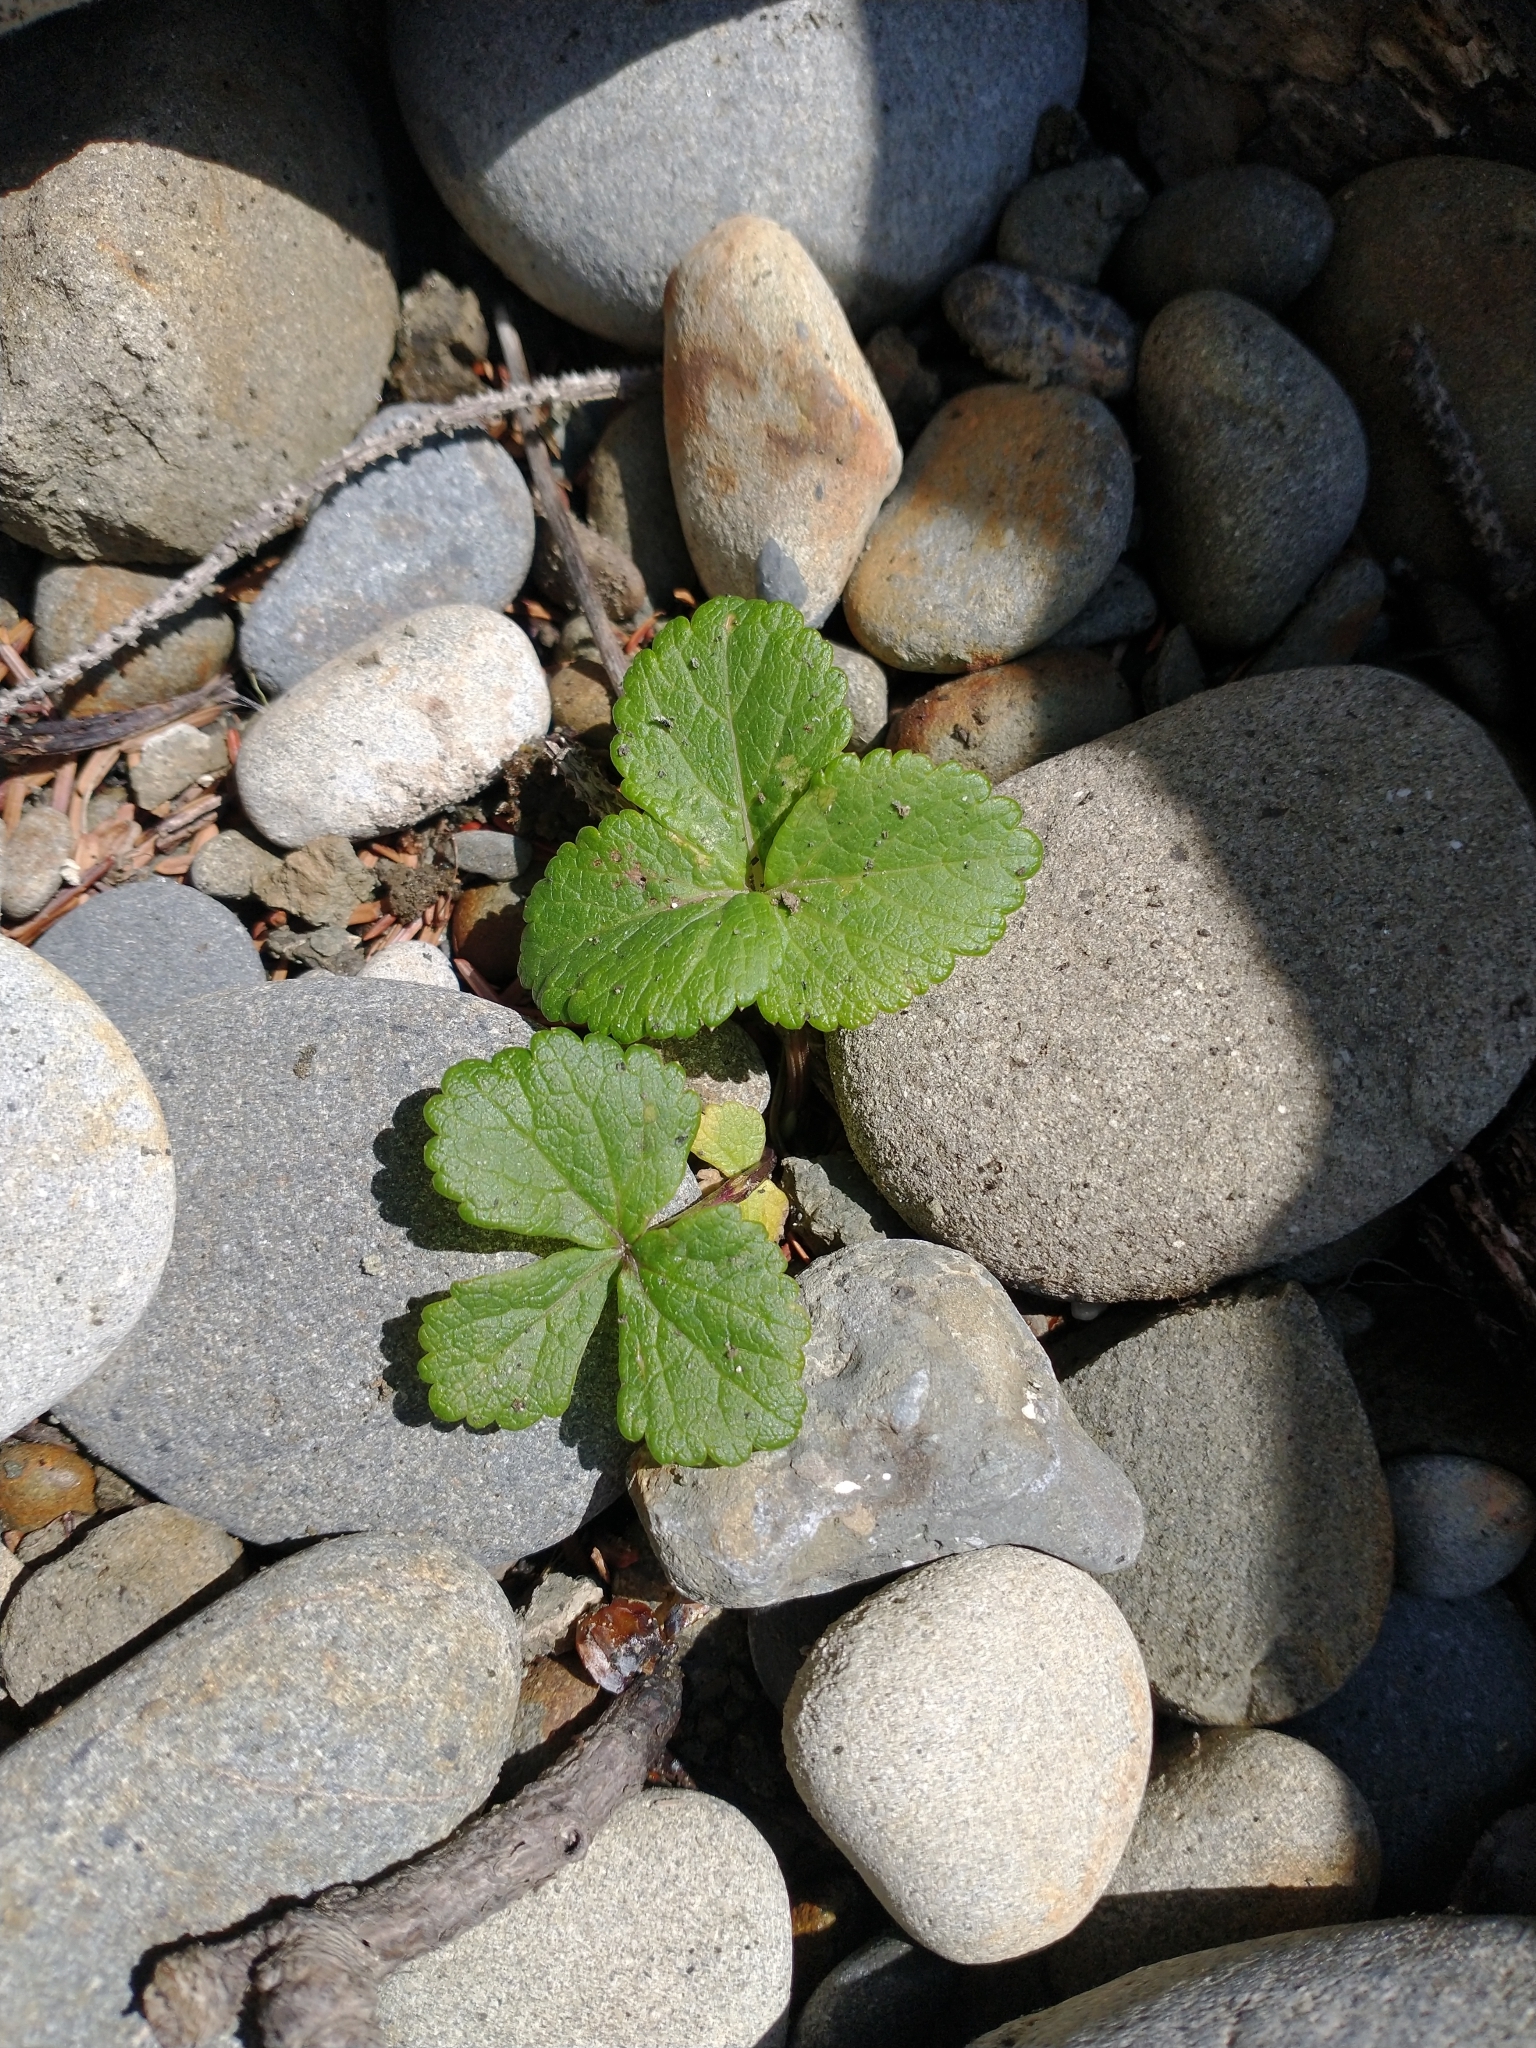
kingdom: Plantae
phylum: Tracheophyta
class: Magnoliopsida
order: Apiales
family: Apiaceae
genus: Glehnia
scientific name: Glehnia littoralis
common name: Beach silvertop
